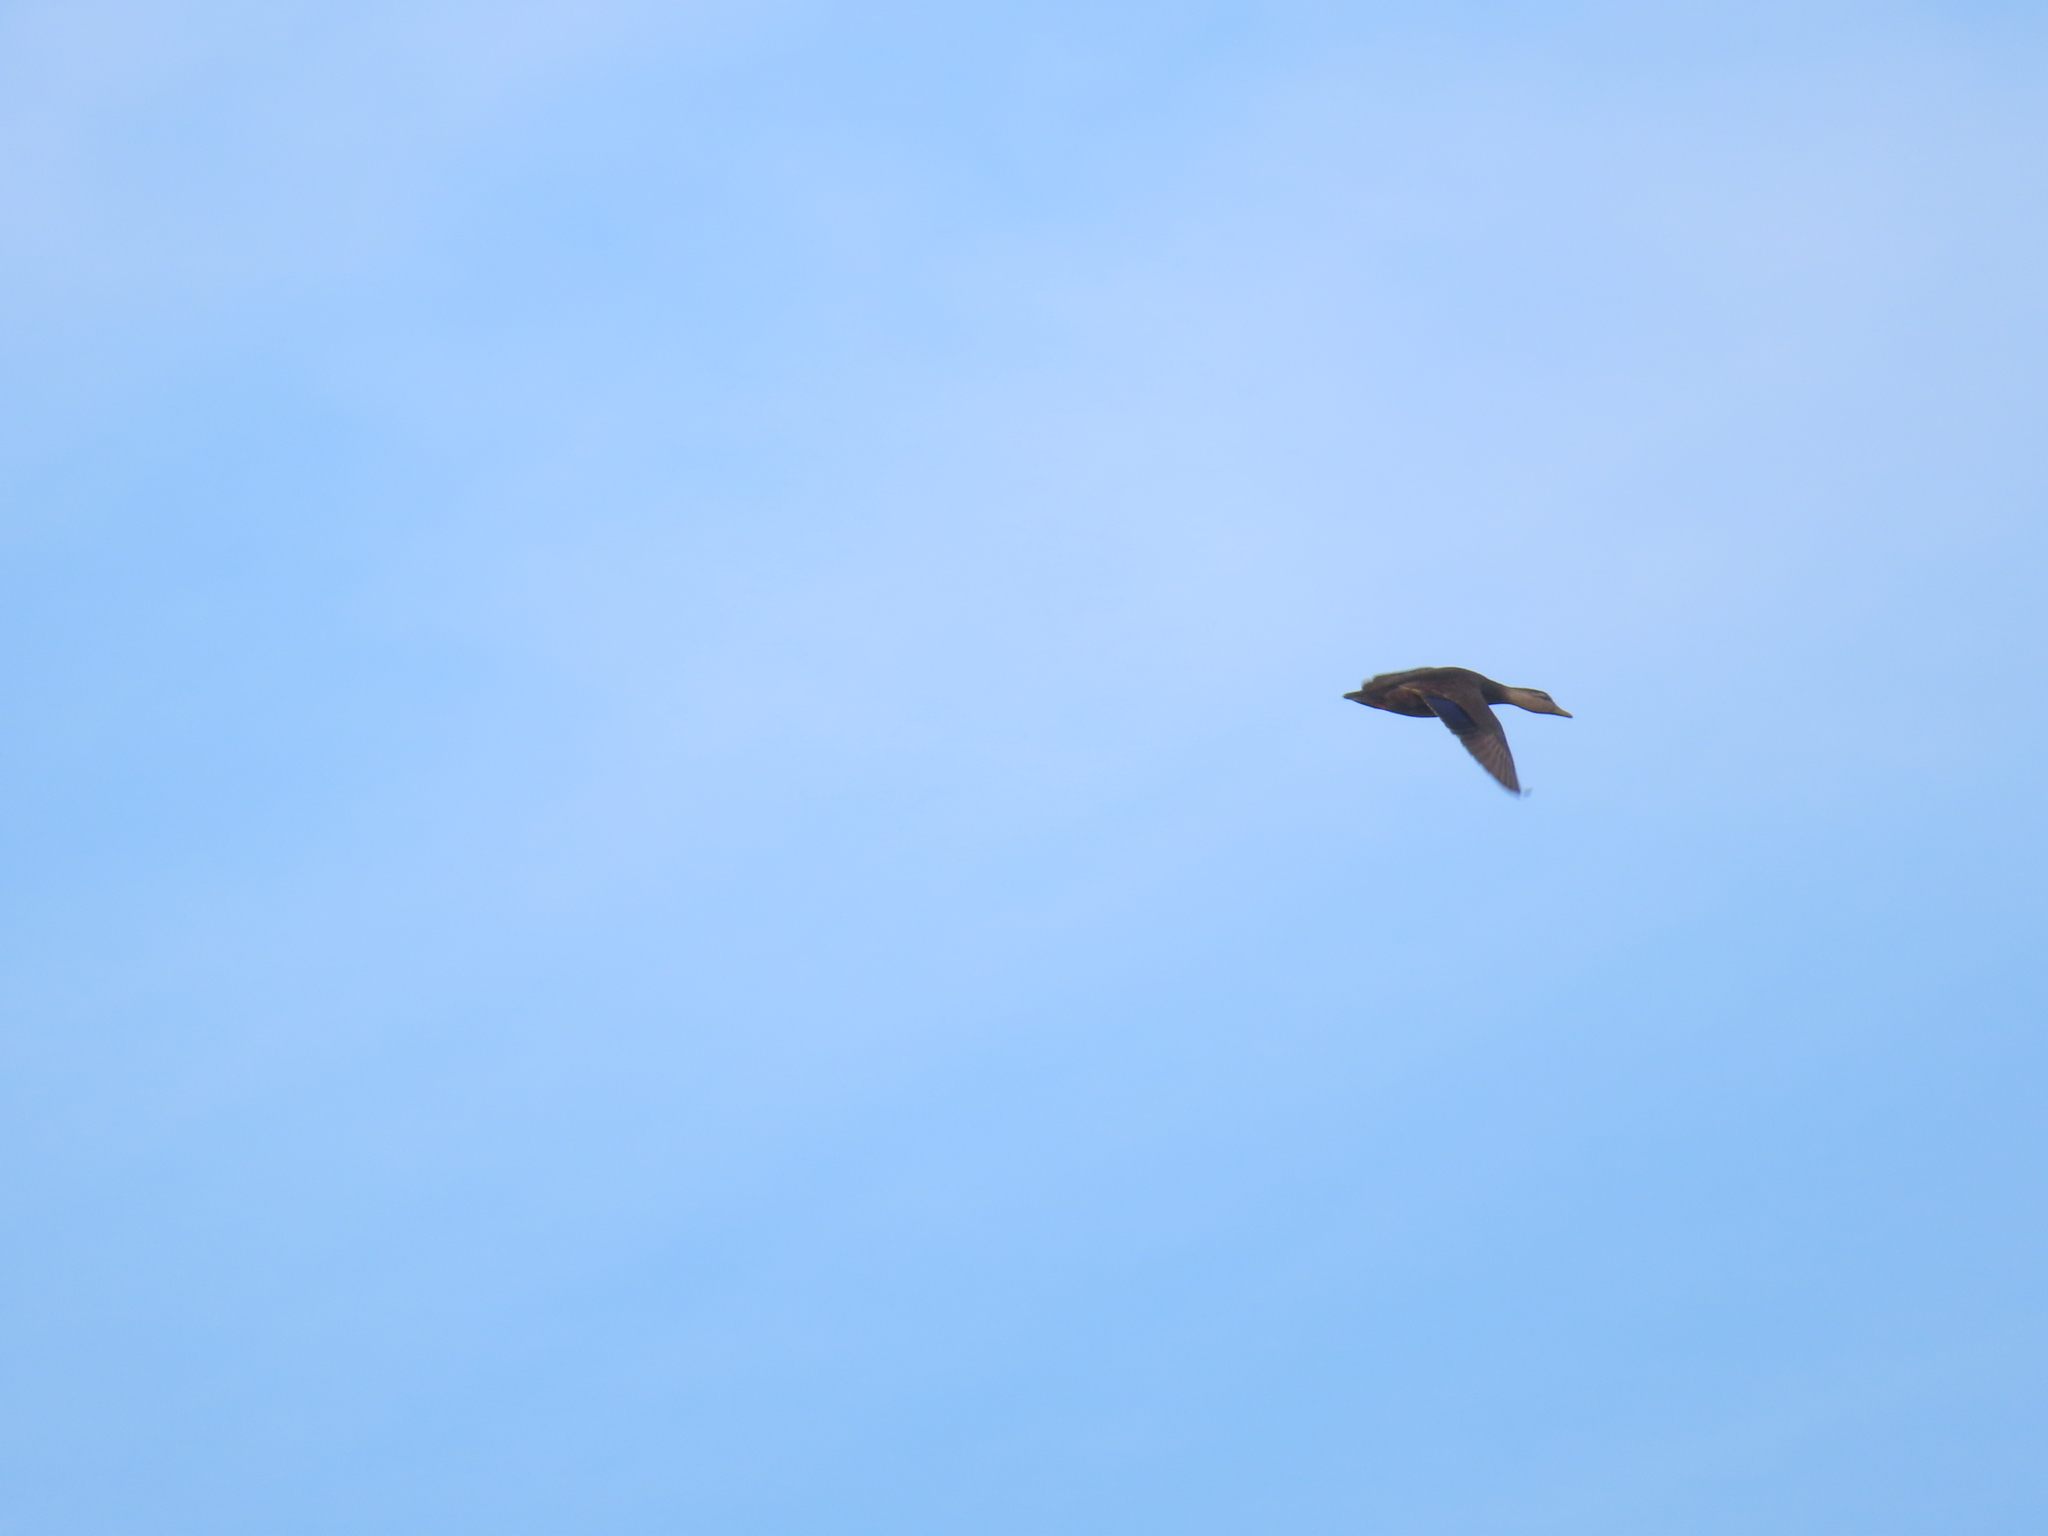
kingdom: Animalia
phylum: Chordata
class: Aves
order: Anseriformes
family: Anatidae
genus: Anas
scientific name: Anas rubripes
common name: American black duck
